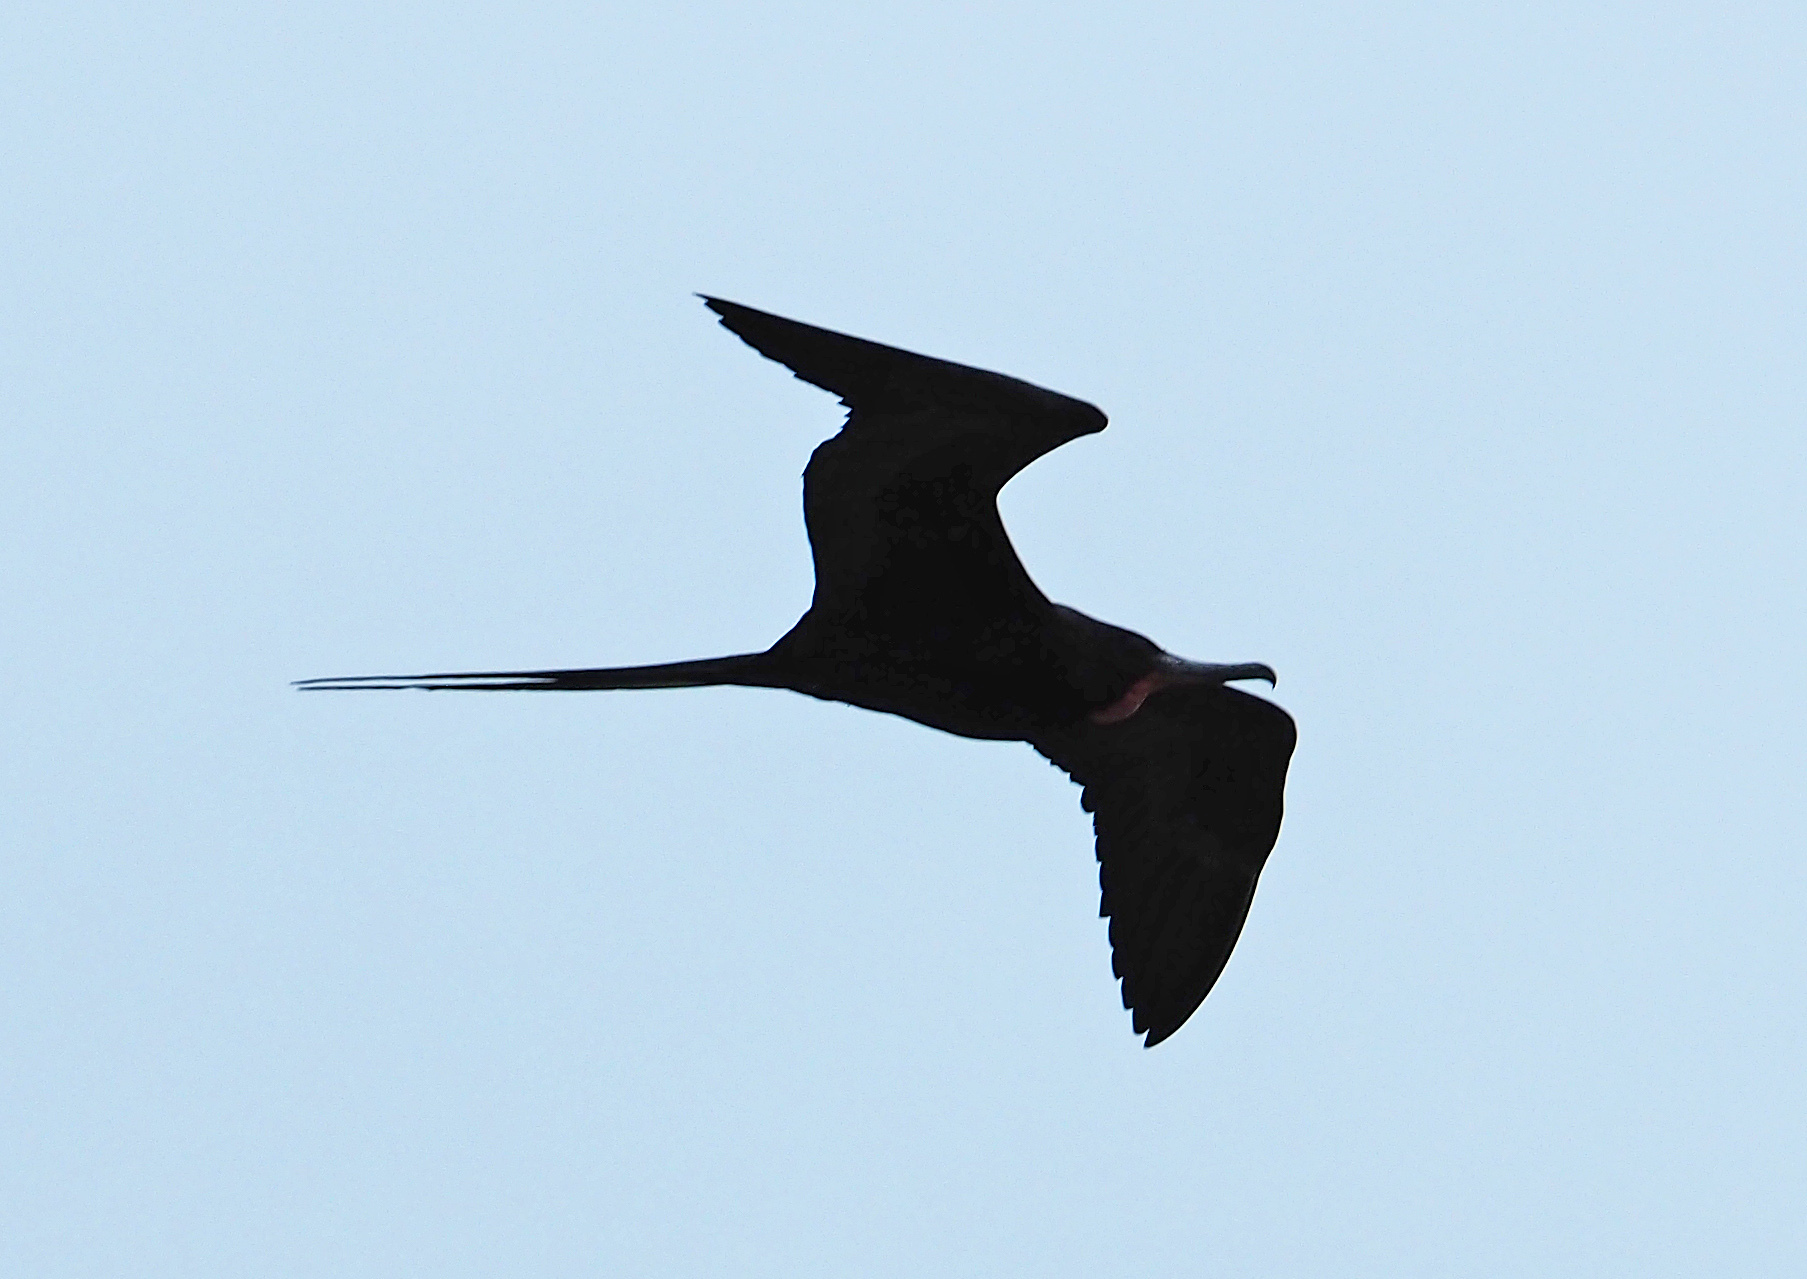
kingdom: Animalia
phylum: Chordata
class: Aves
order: Suliformes
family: Fregatidae
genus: Fregata
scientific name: Fregata magnificens
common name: Magnificent frigatebird
